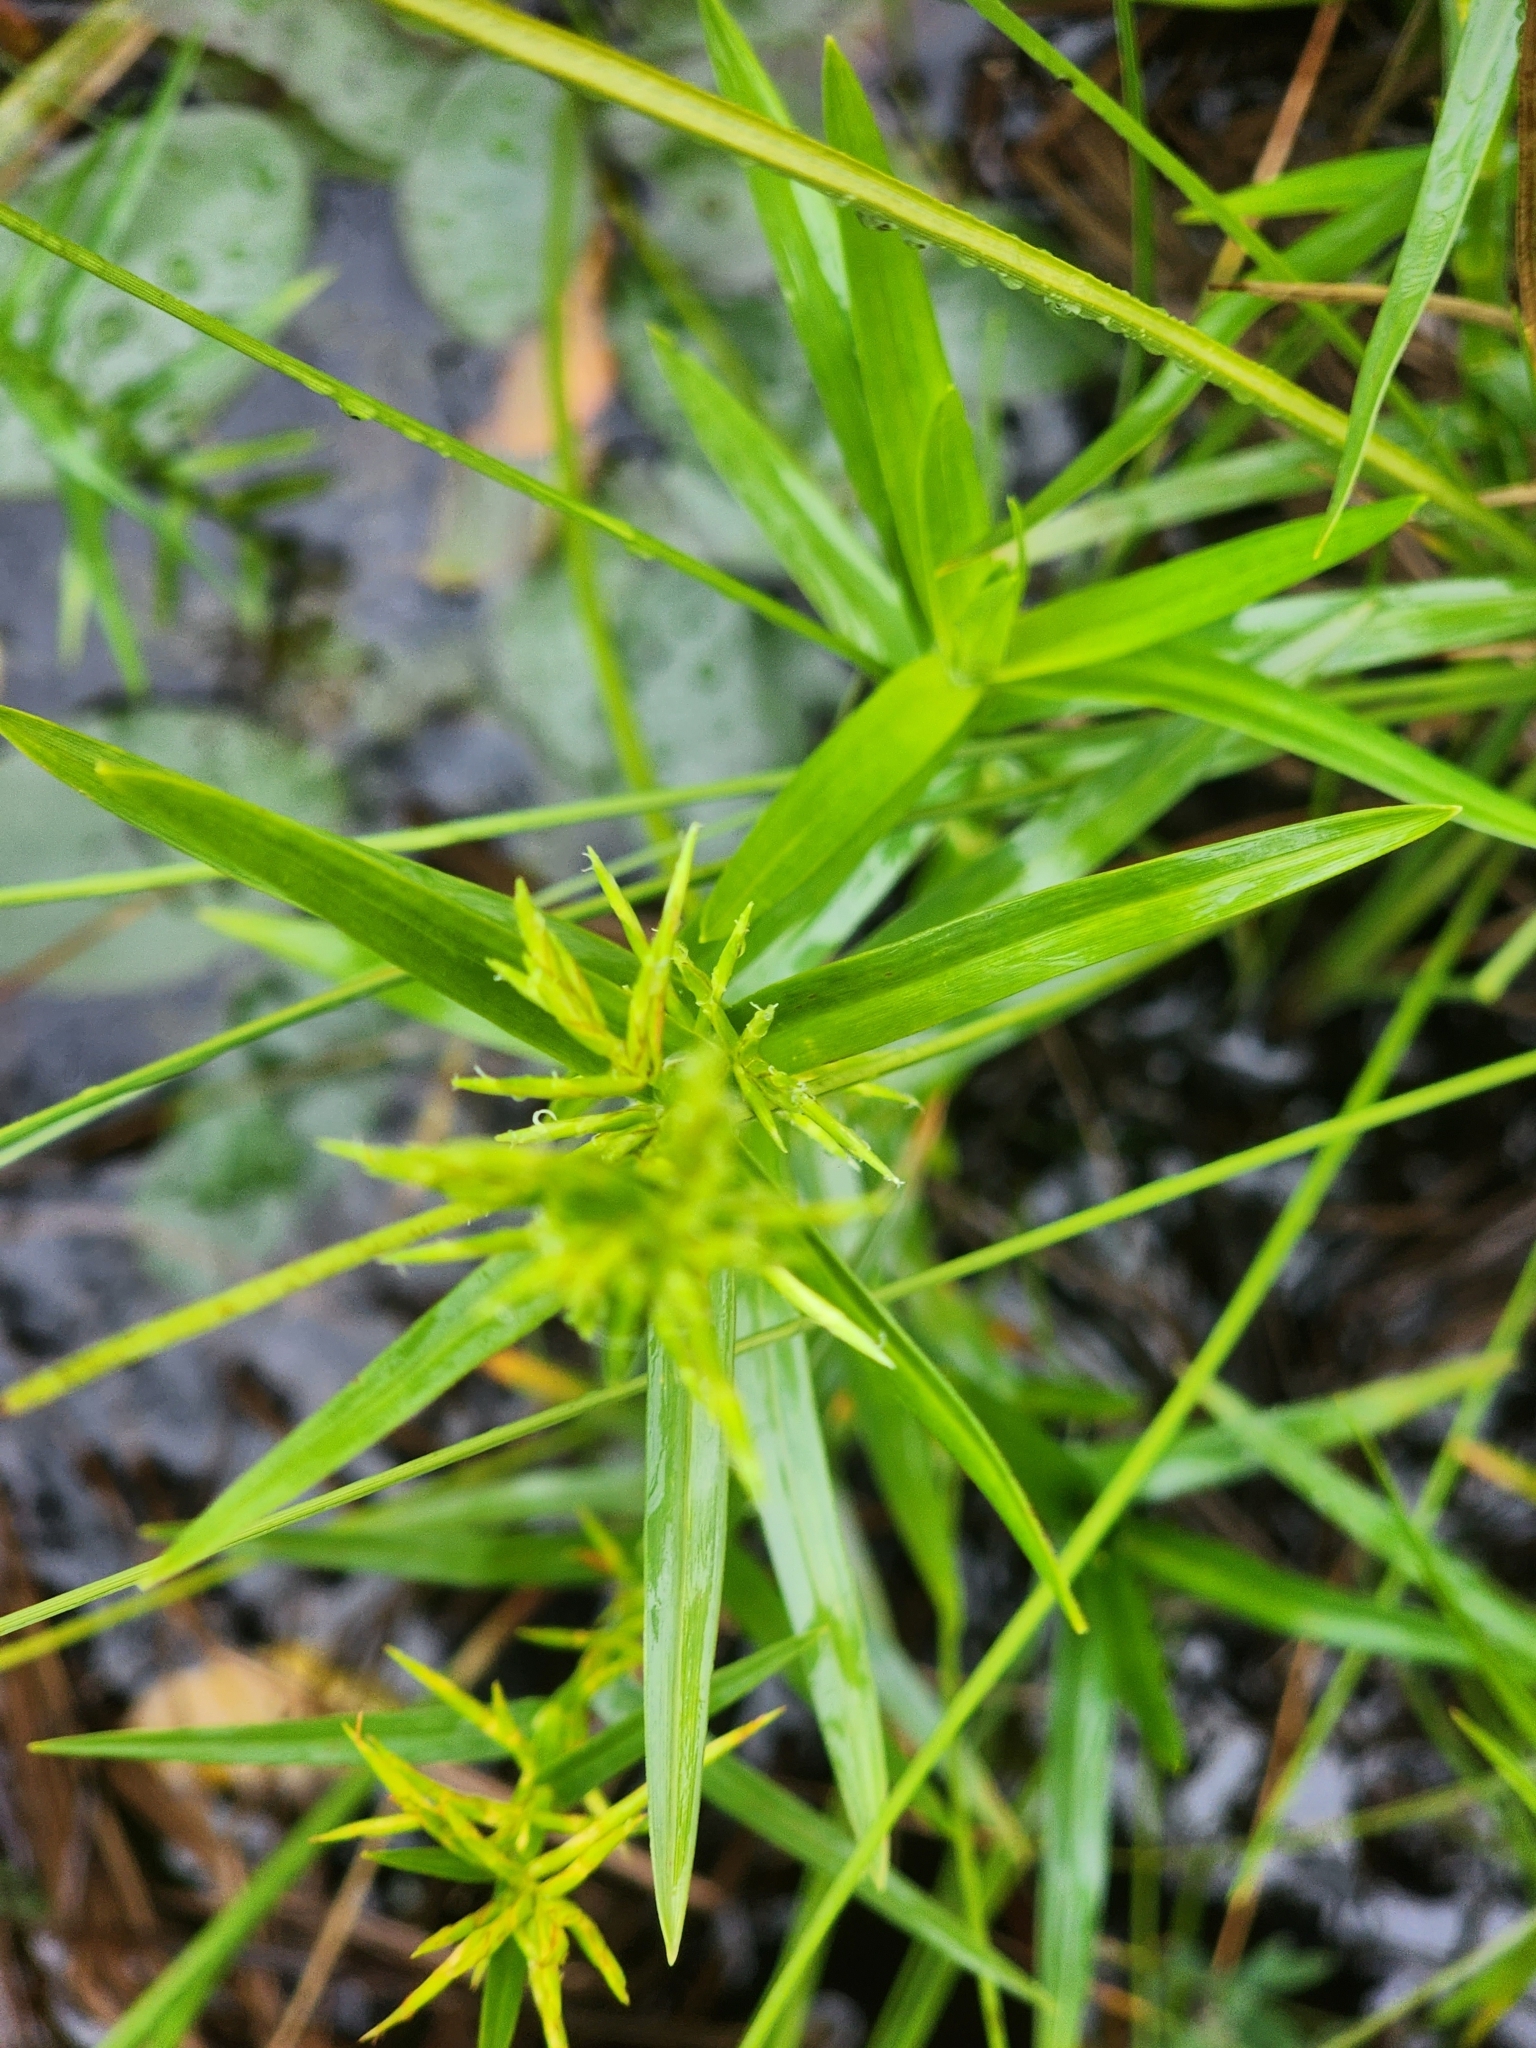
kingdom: Plantae
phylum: Tracheophyta
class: Liliopsida
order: Poales
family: Cyperaceae
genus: Dulichium
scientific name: Dulichium arundinaceum
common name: Three-way sedge
